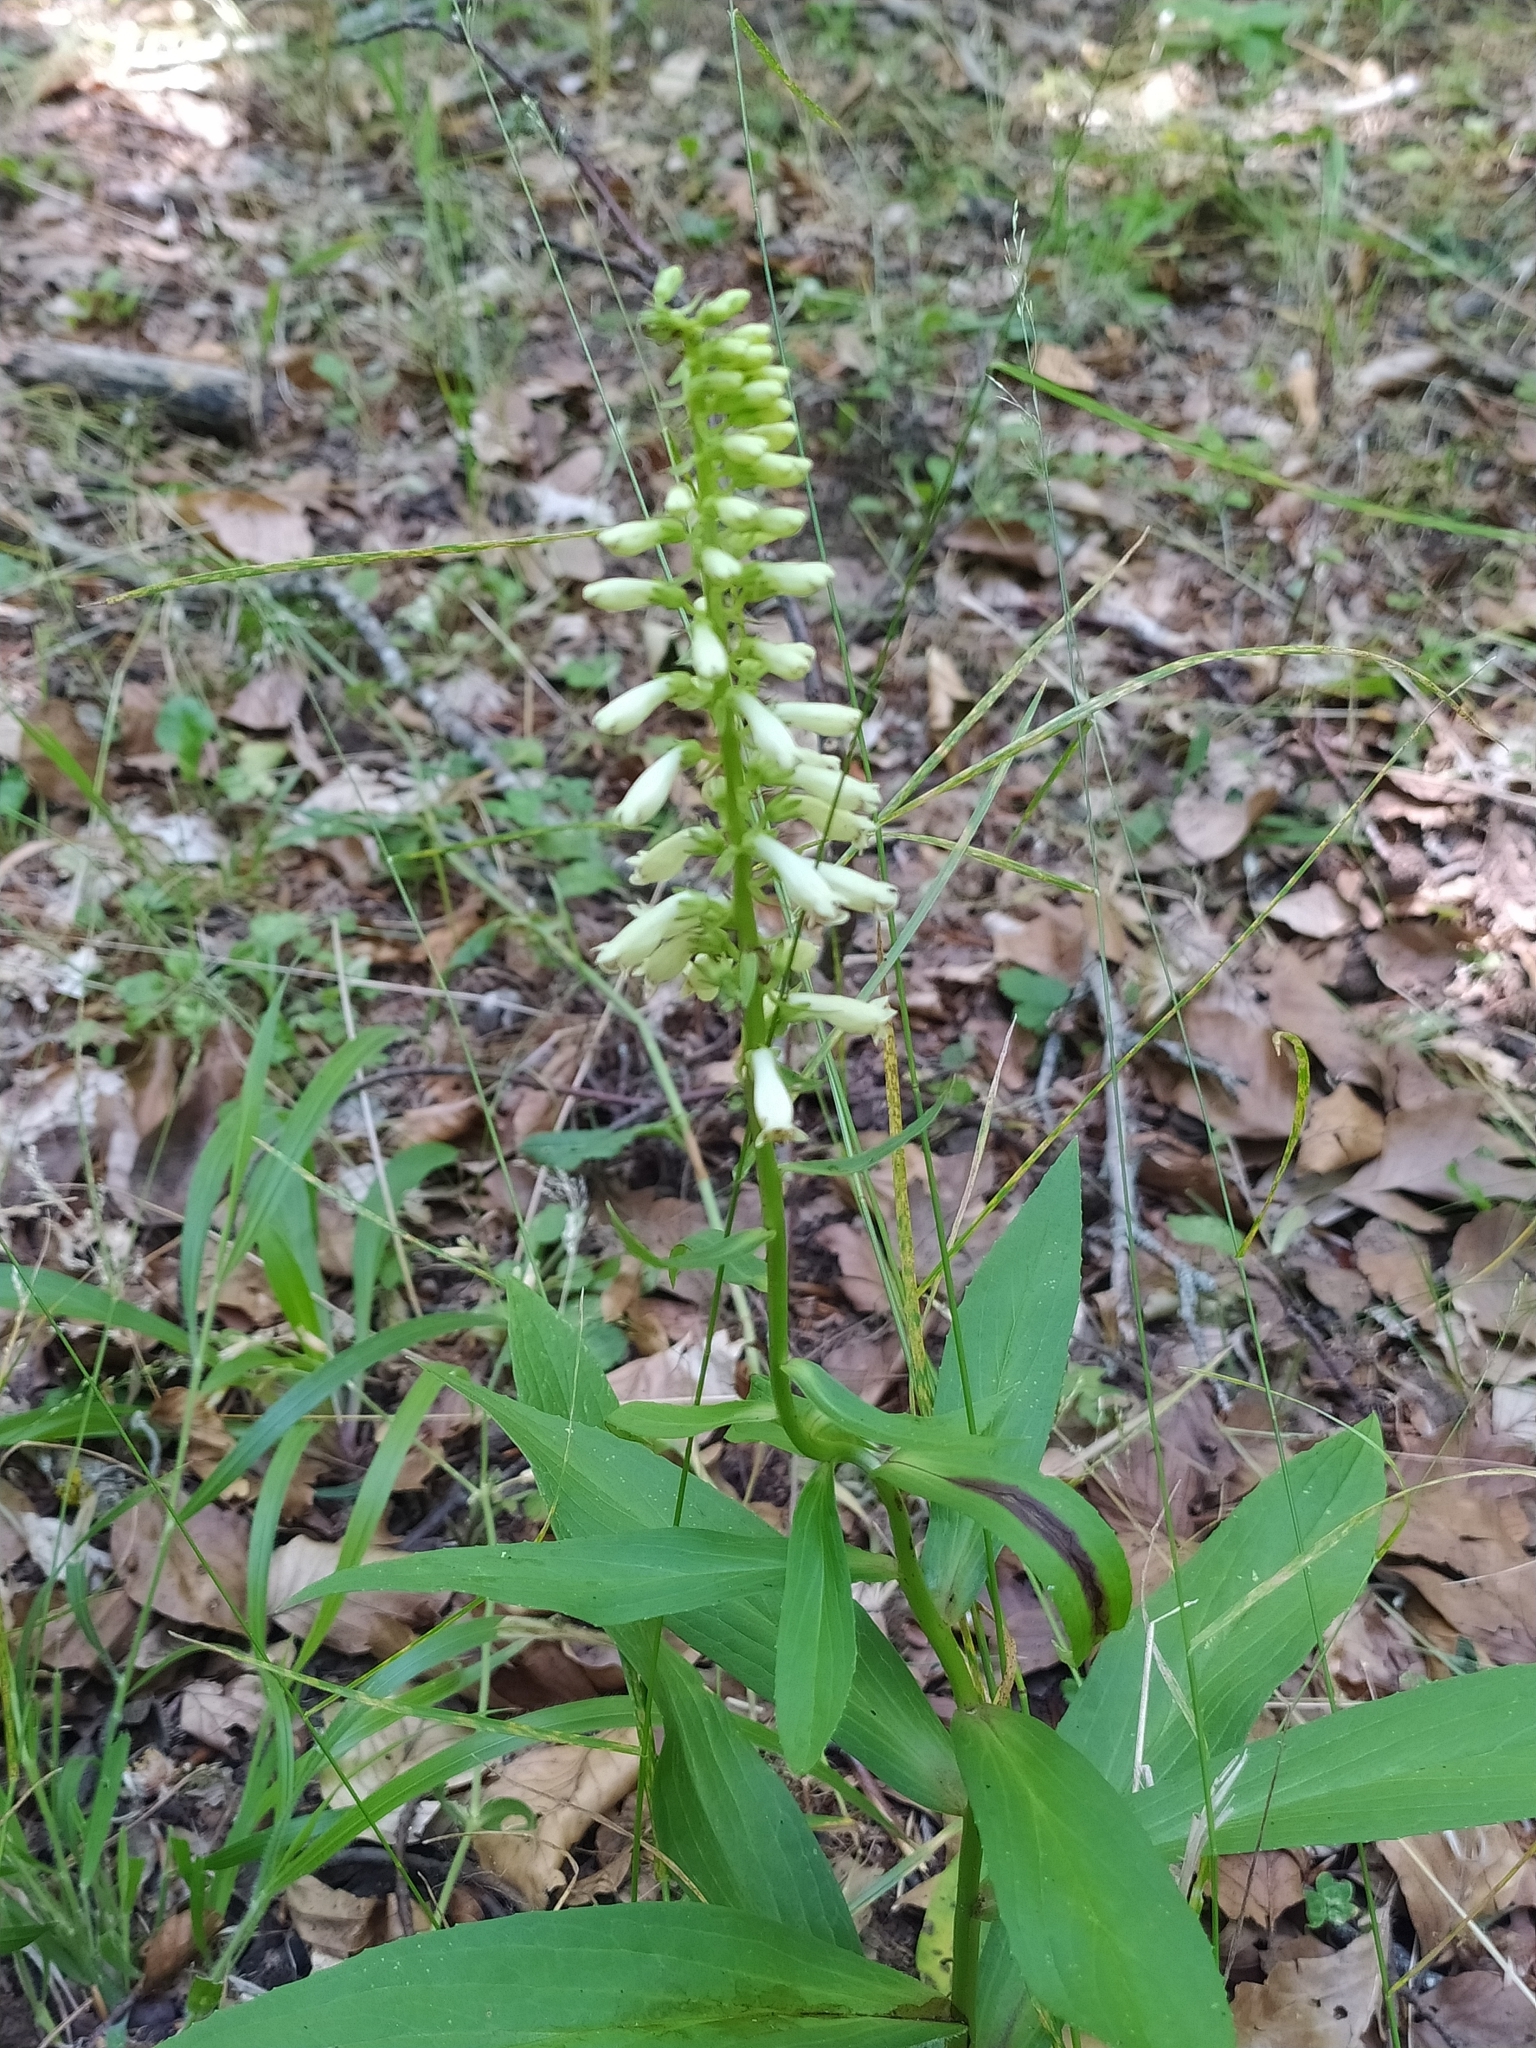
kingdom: Plantae
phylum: Tracheophyta
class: Magnoliopsida
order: Lamiales
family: Plantaginaceae
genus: Digitalis
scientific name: Digitalis lutea
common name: Straw foxglove
